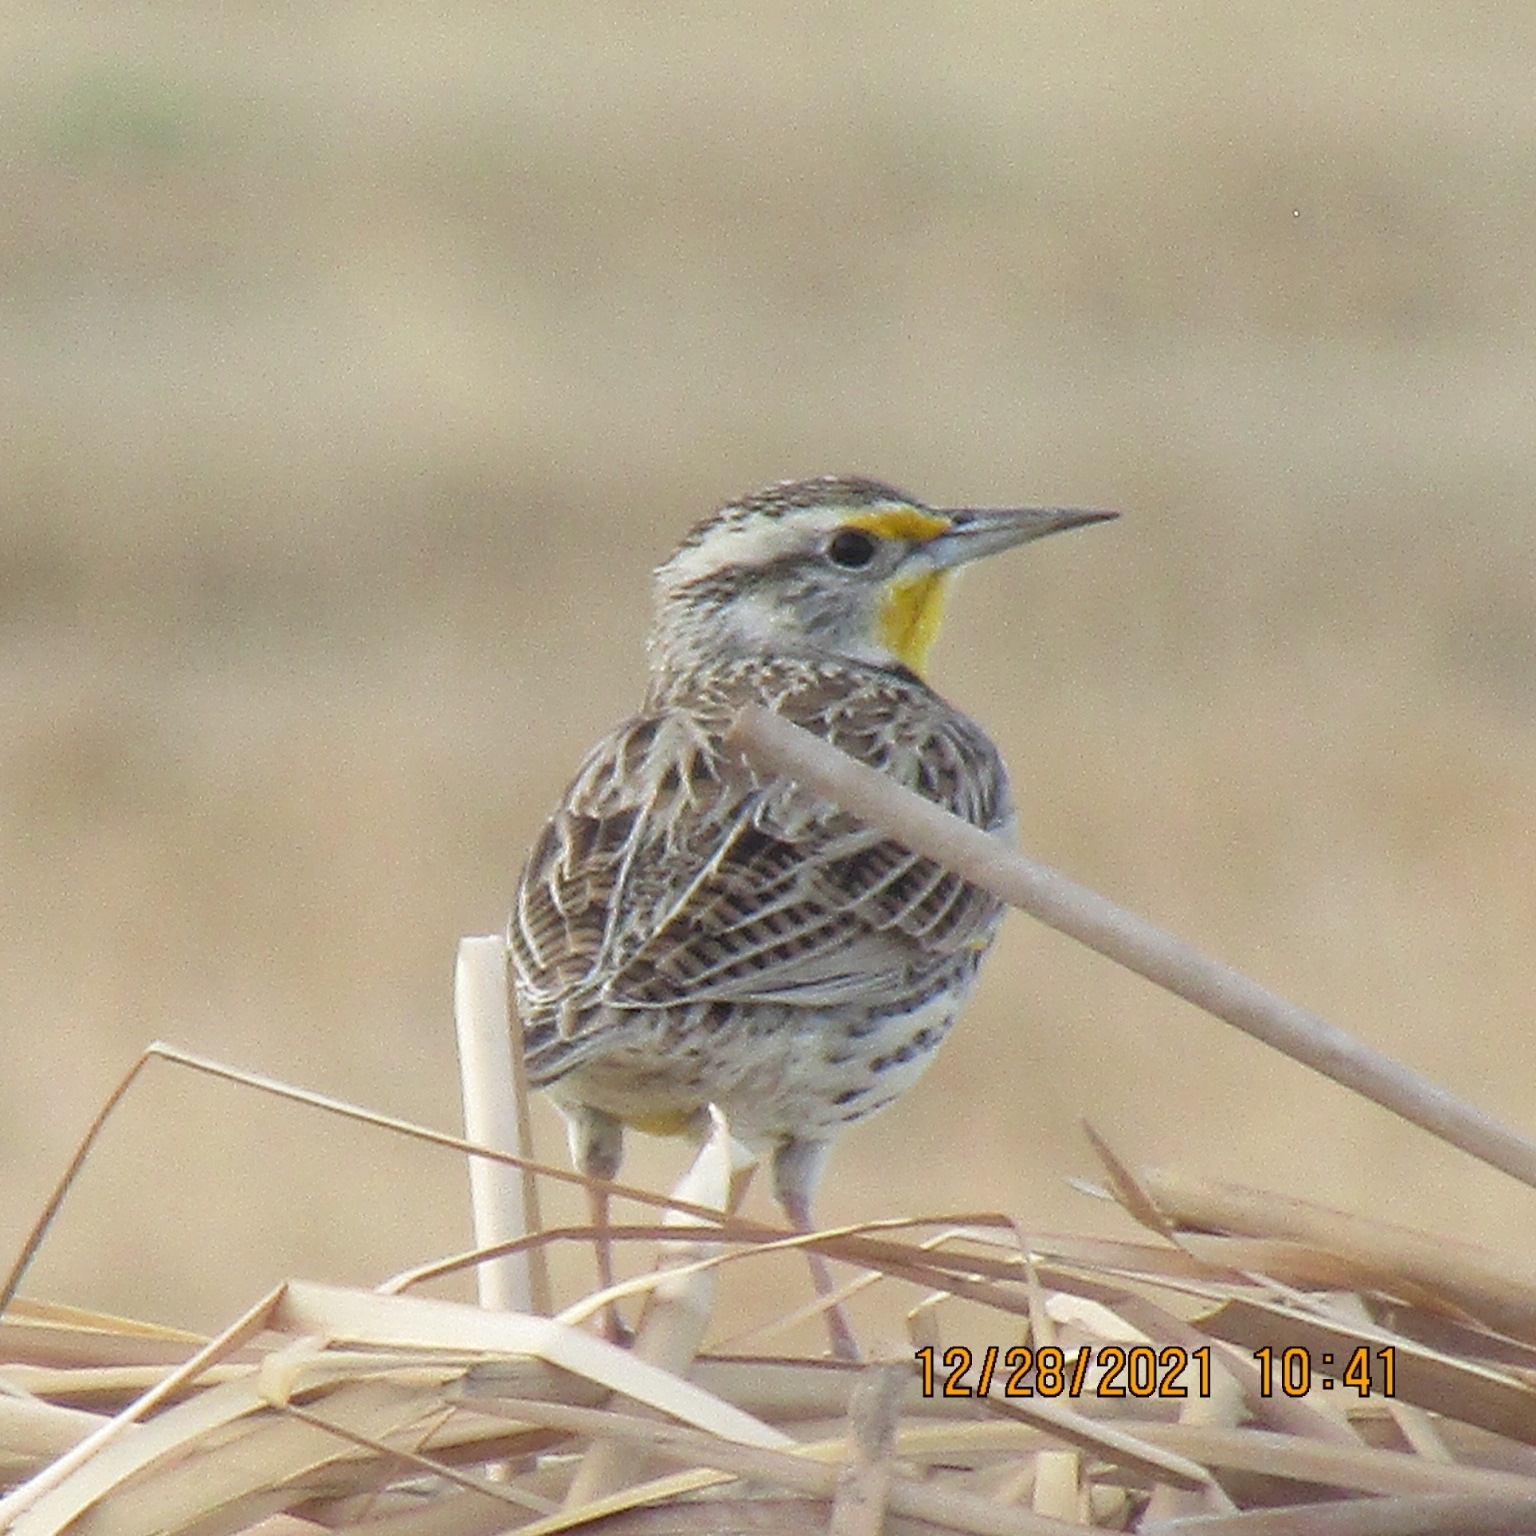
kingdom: Animalia
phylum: Chordata
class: Aves
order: Passeriformes
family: Icteridae
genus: Sturnella
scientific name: Sturnella neglecta
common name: Western meadowlark
